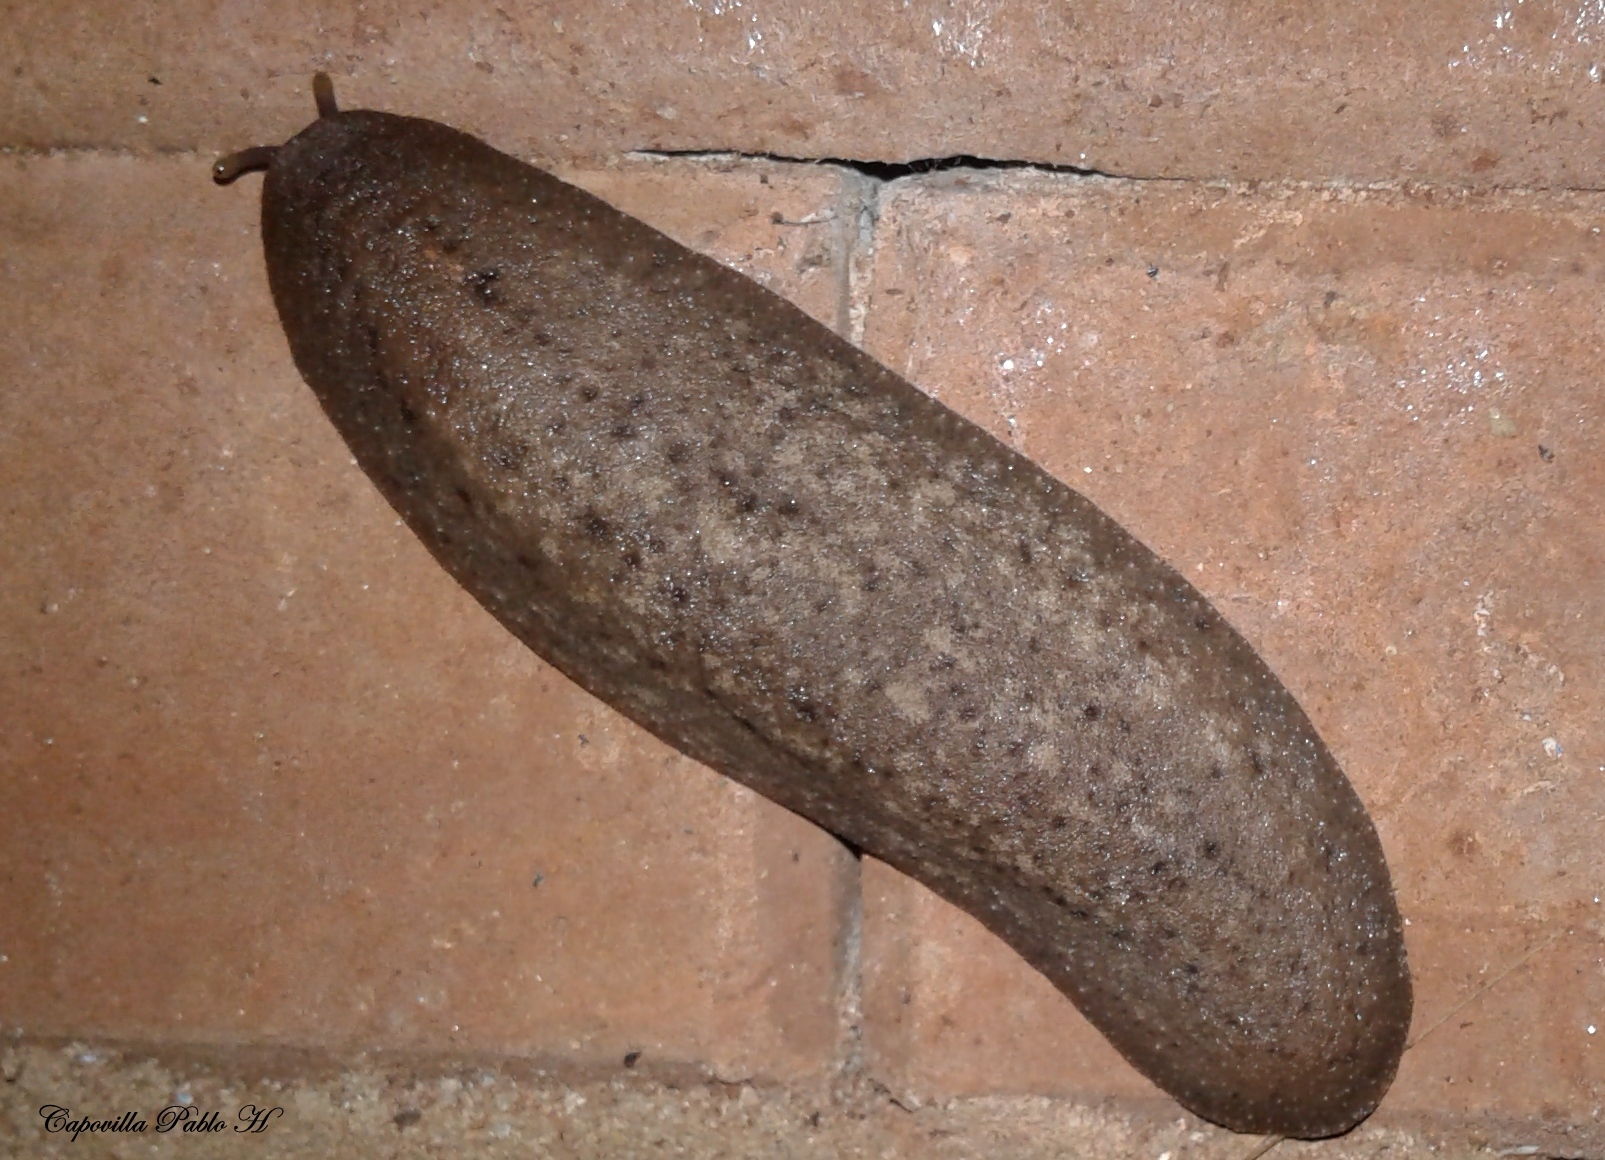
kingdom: Animalia
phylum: Mollusca
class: Gastropoda
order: Systellommatophora
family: Veronicellidae
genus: Phyllocaulis
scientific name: Phyllocaulis variegatus
